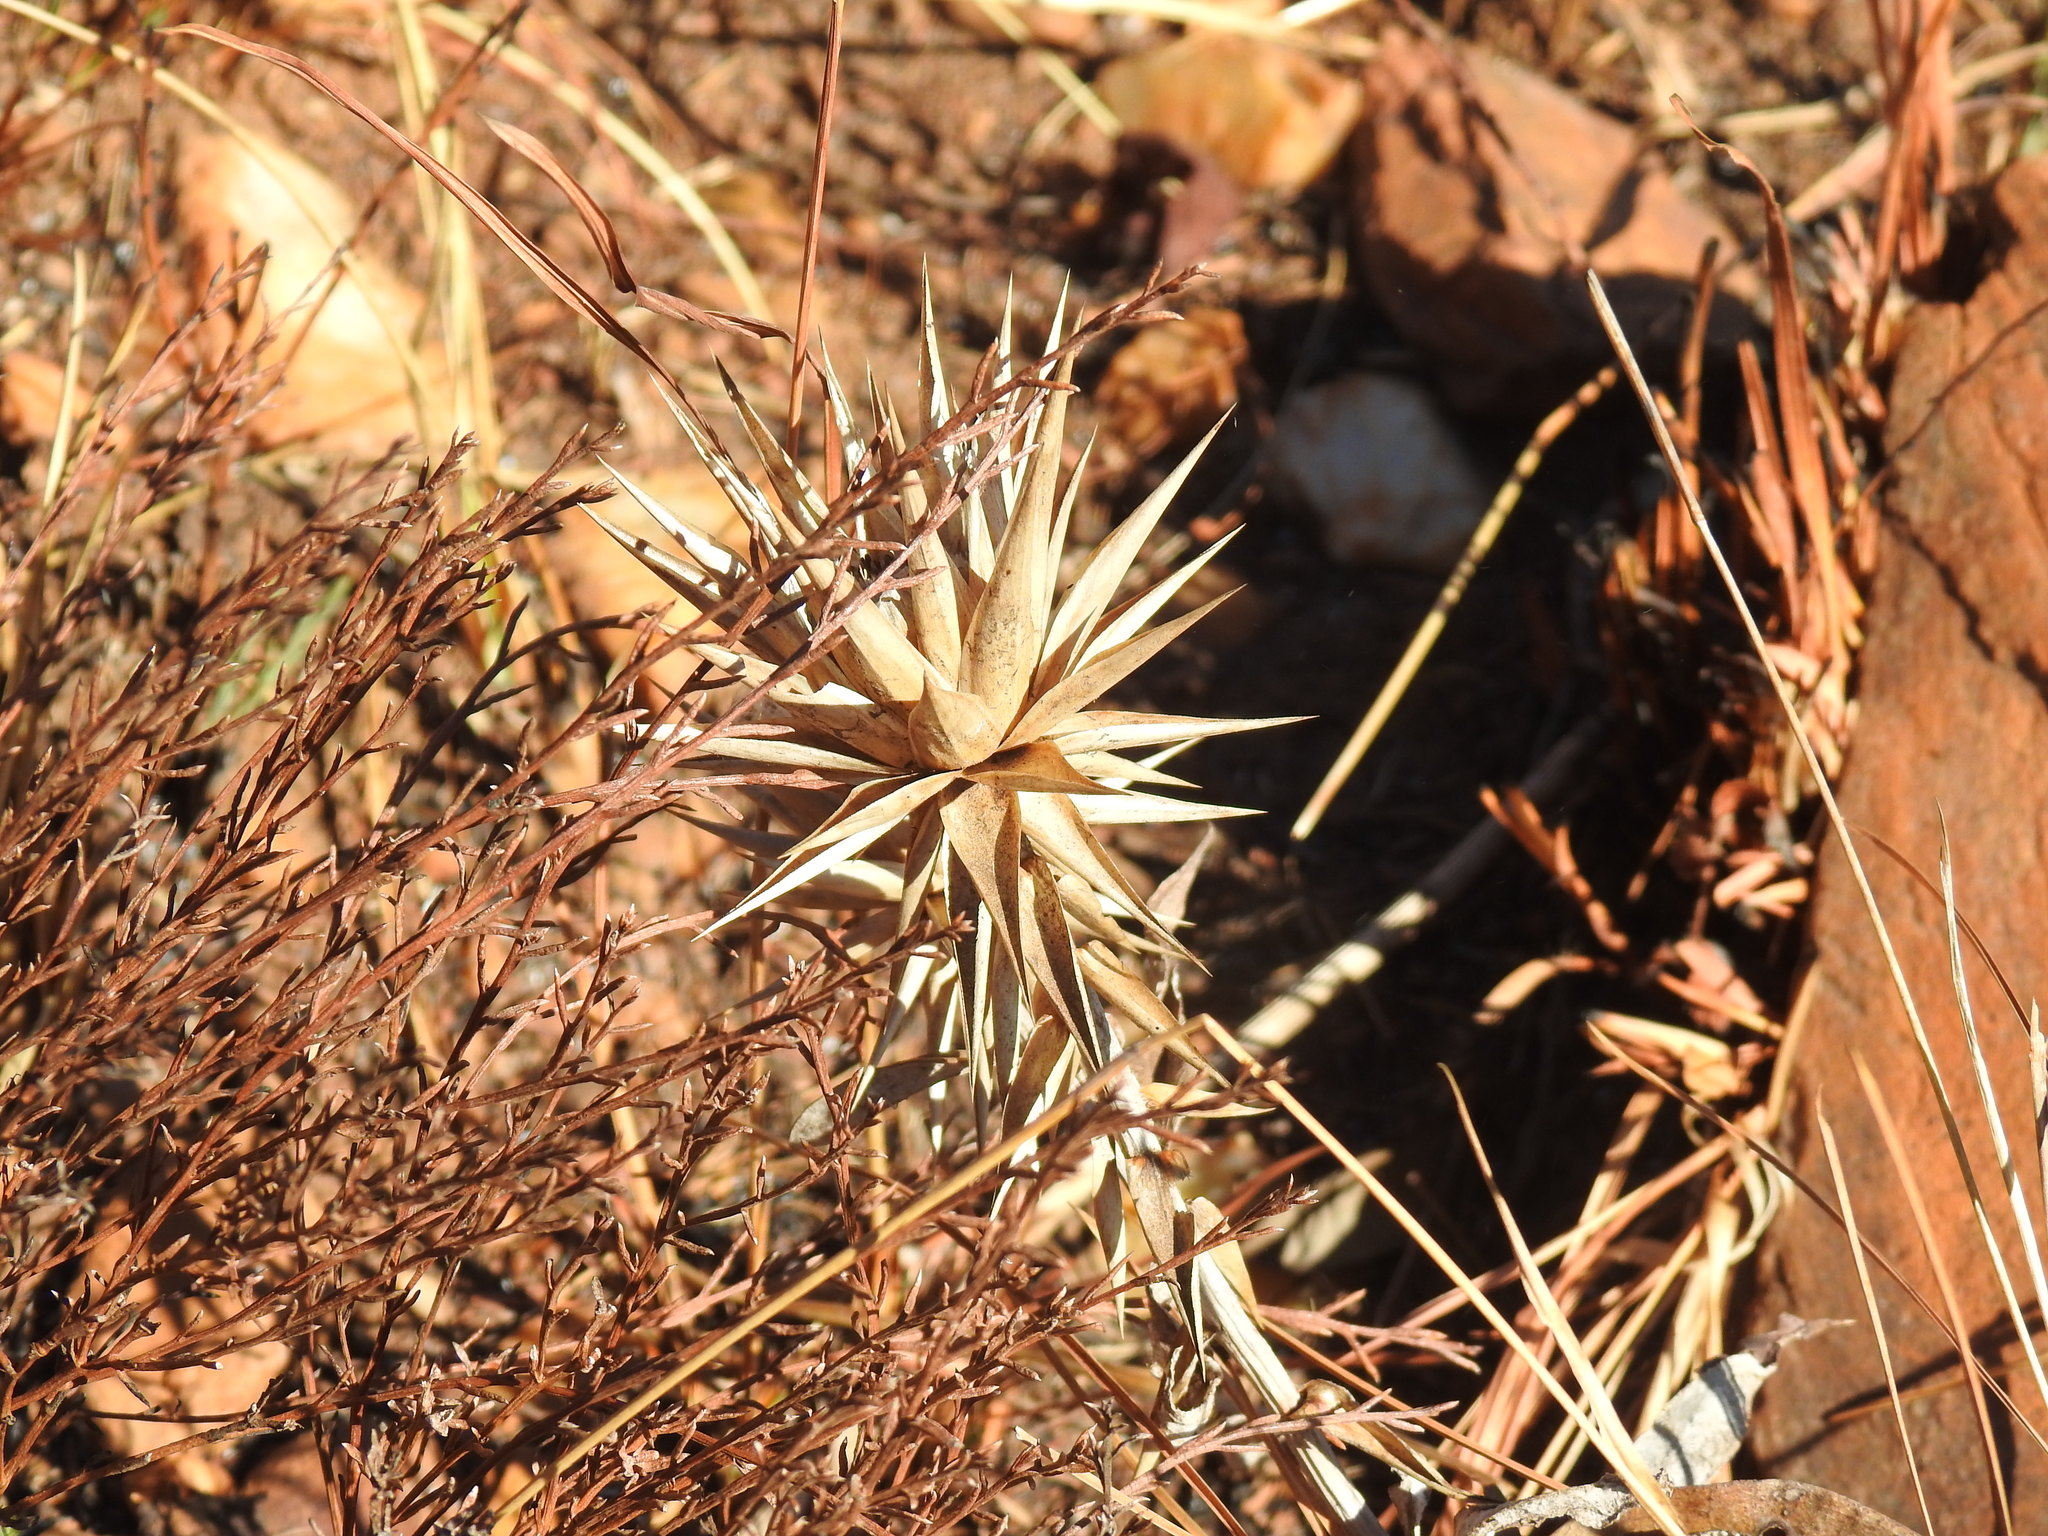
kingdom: Plantae
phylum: Tracheophyta
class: Magnoliopsida
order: Asterales
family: Asteraceae
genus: Macledium
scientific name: Macledium zeyheri
